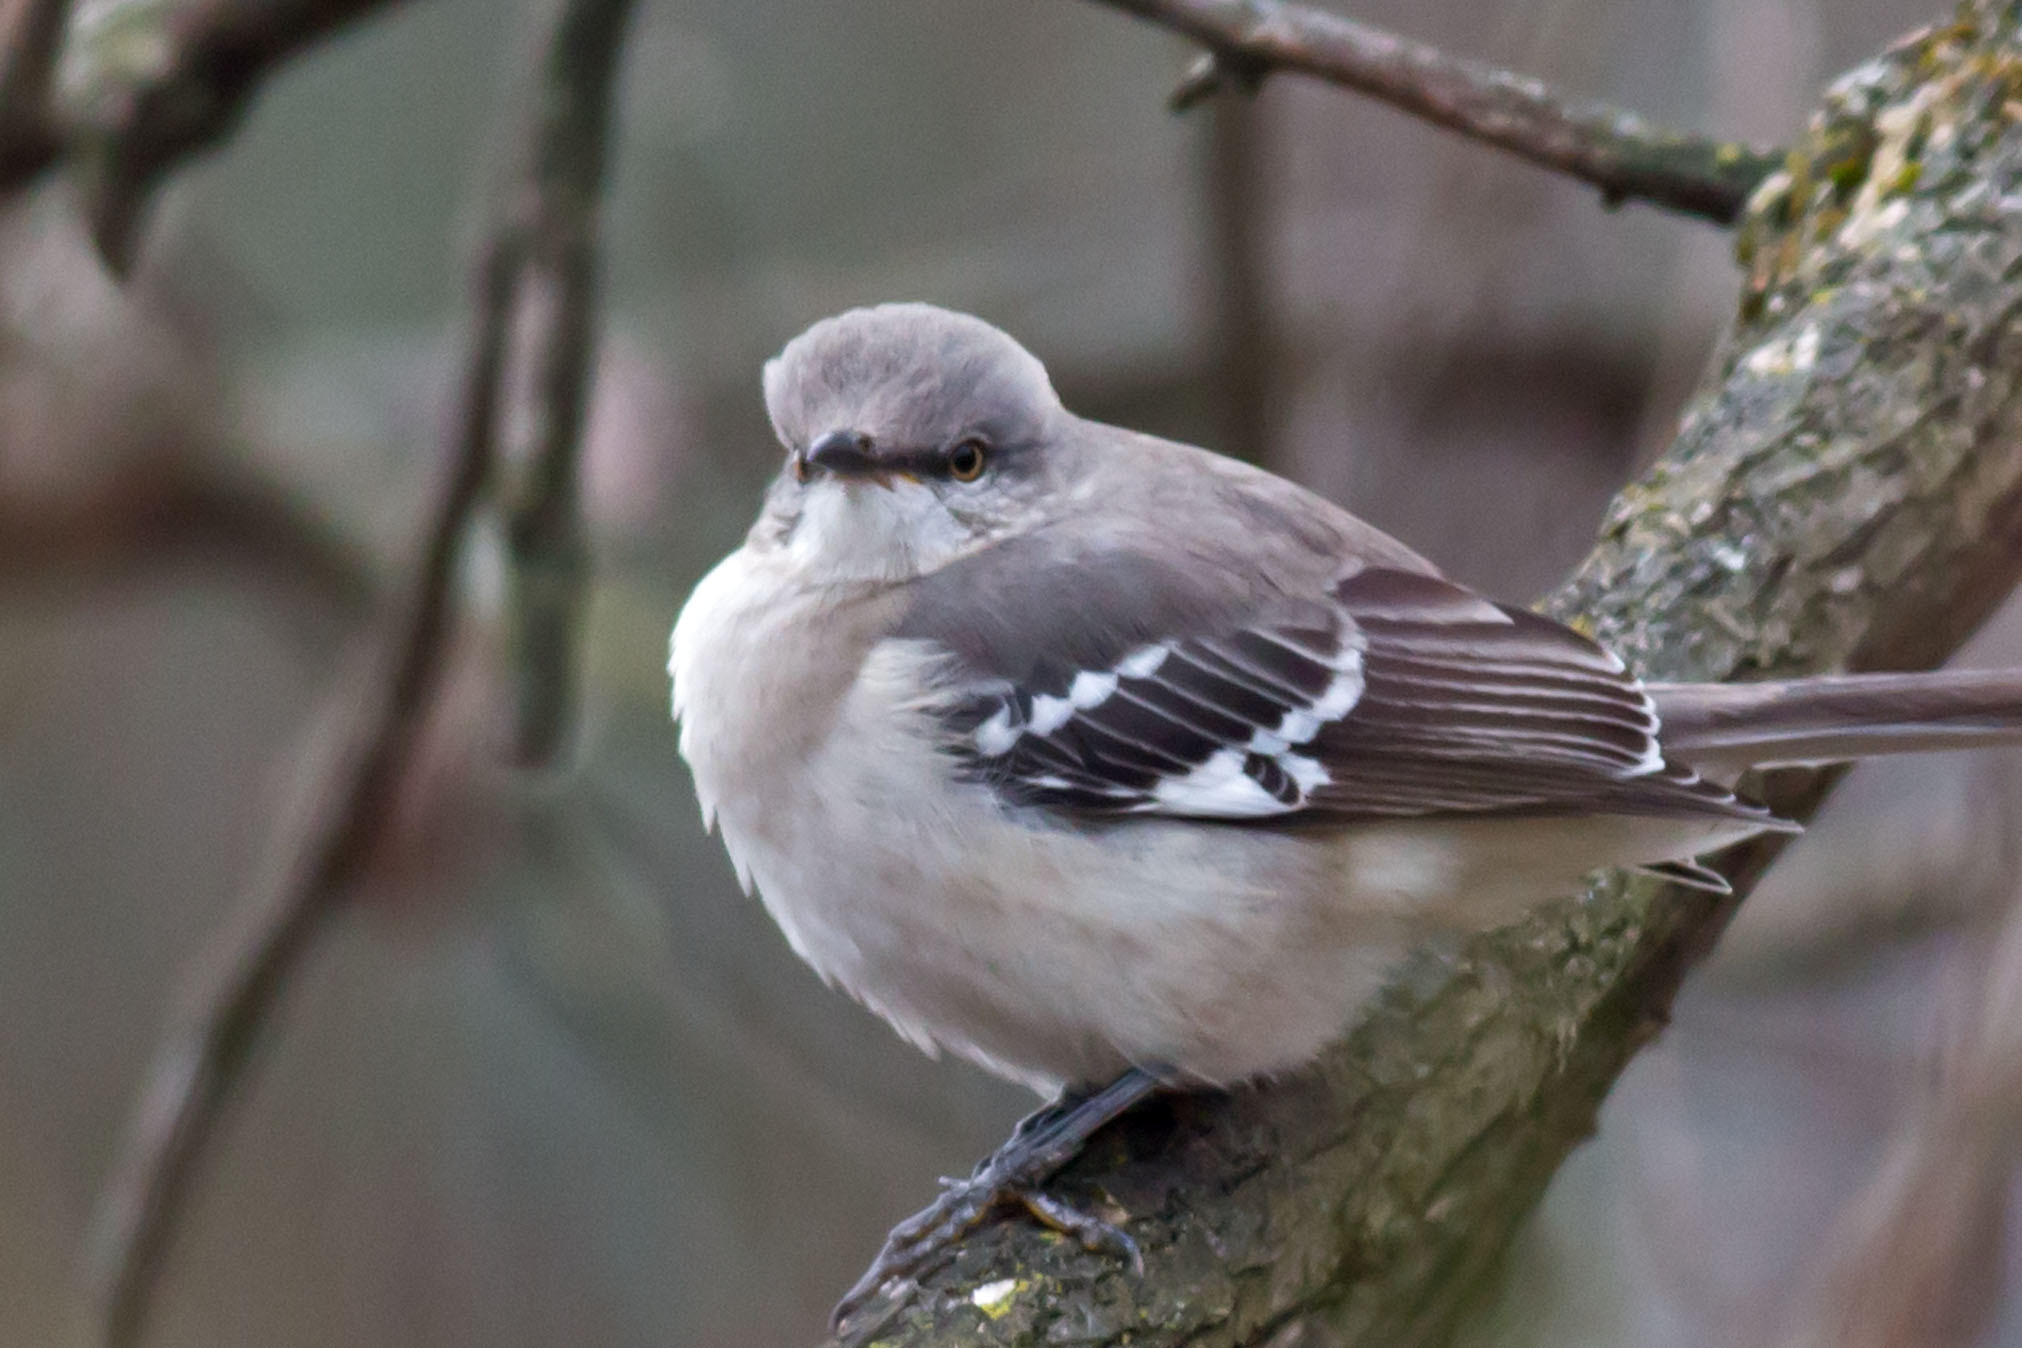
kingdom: Animalia
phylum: Chordata
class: Aves
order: Passeriformes
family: Mimidae
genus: Mimus
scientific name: Mimus polyglottos
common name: Northern mockingbird
